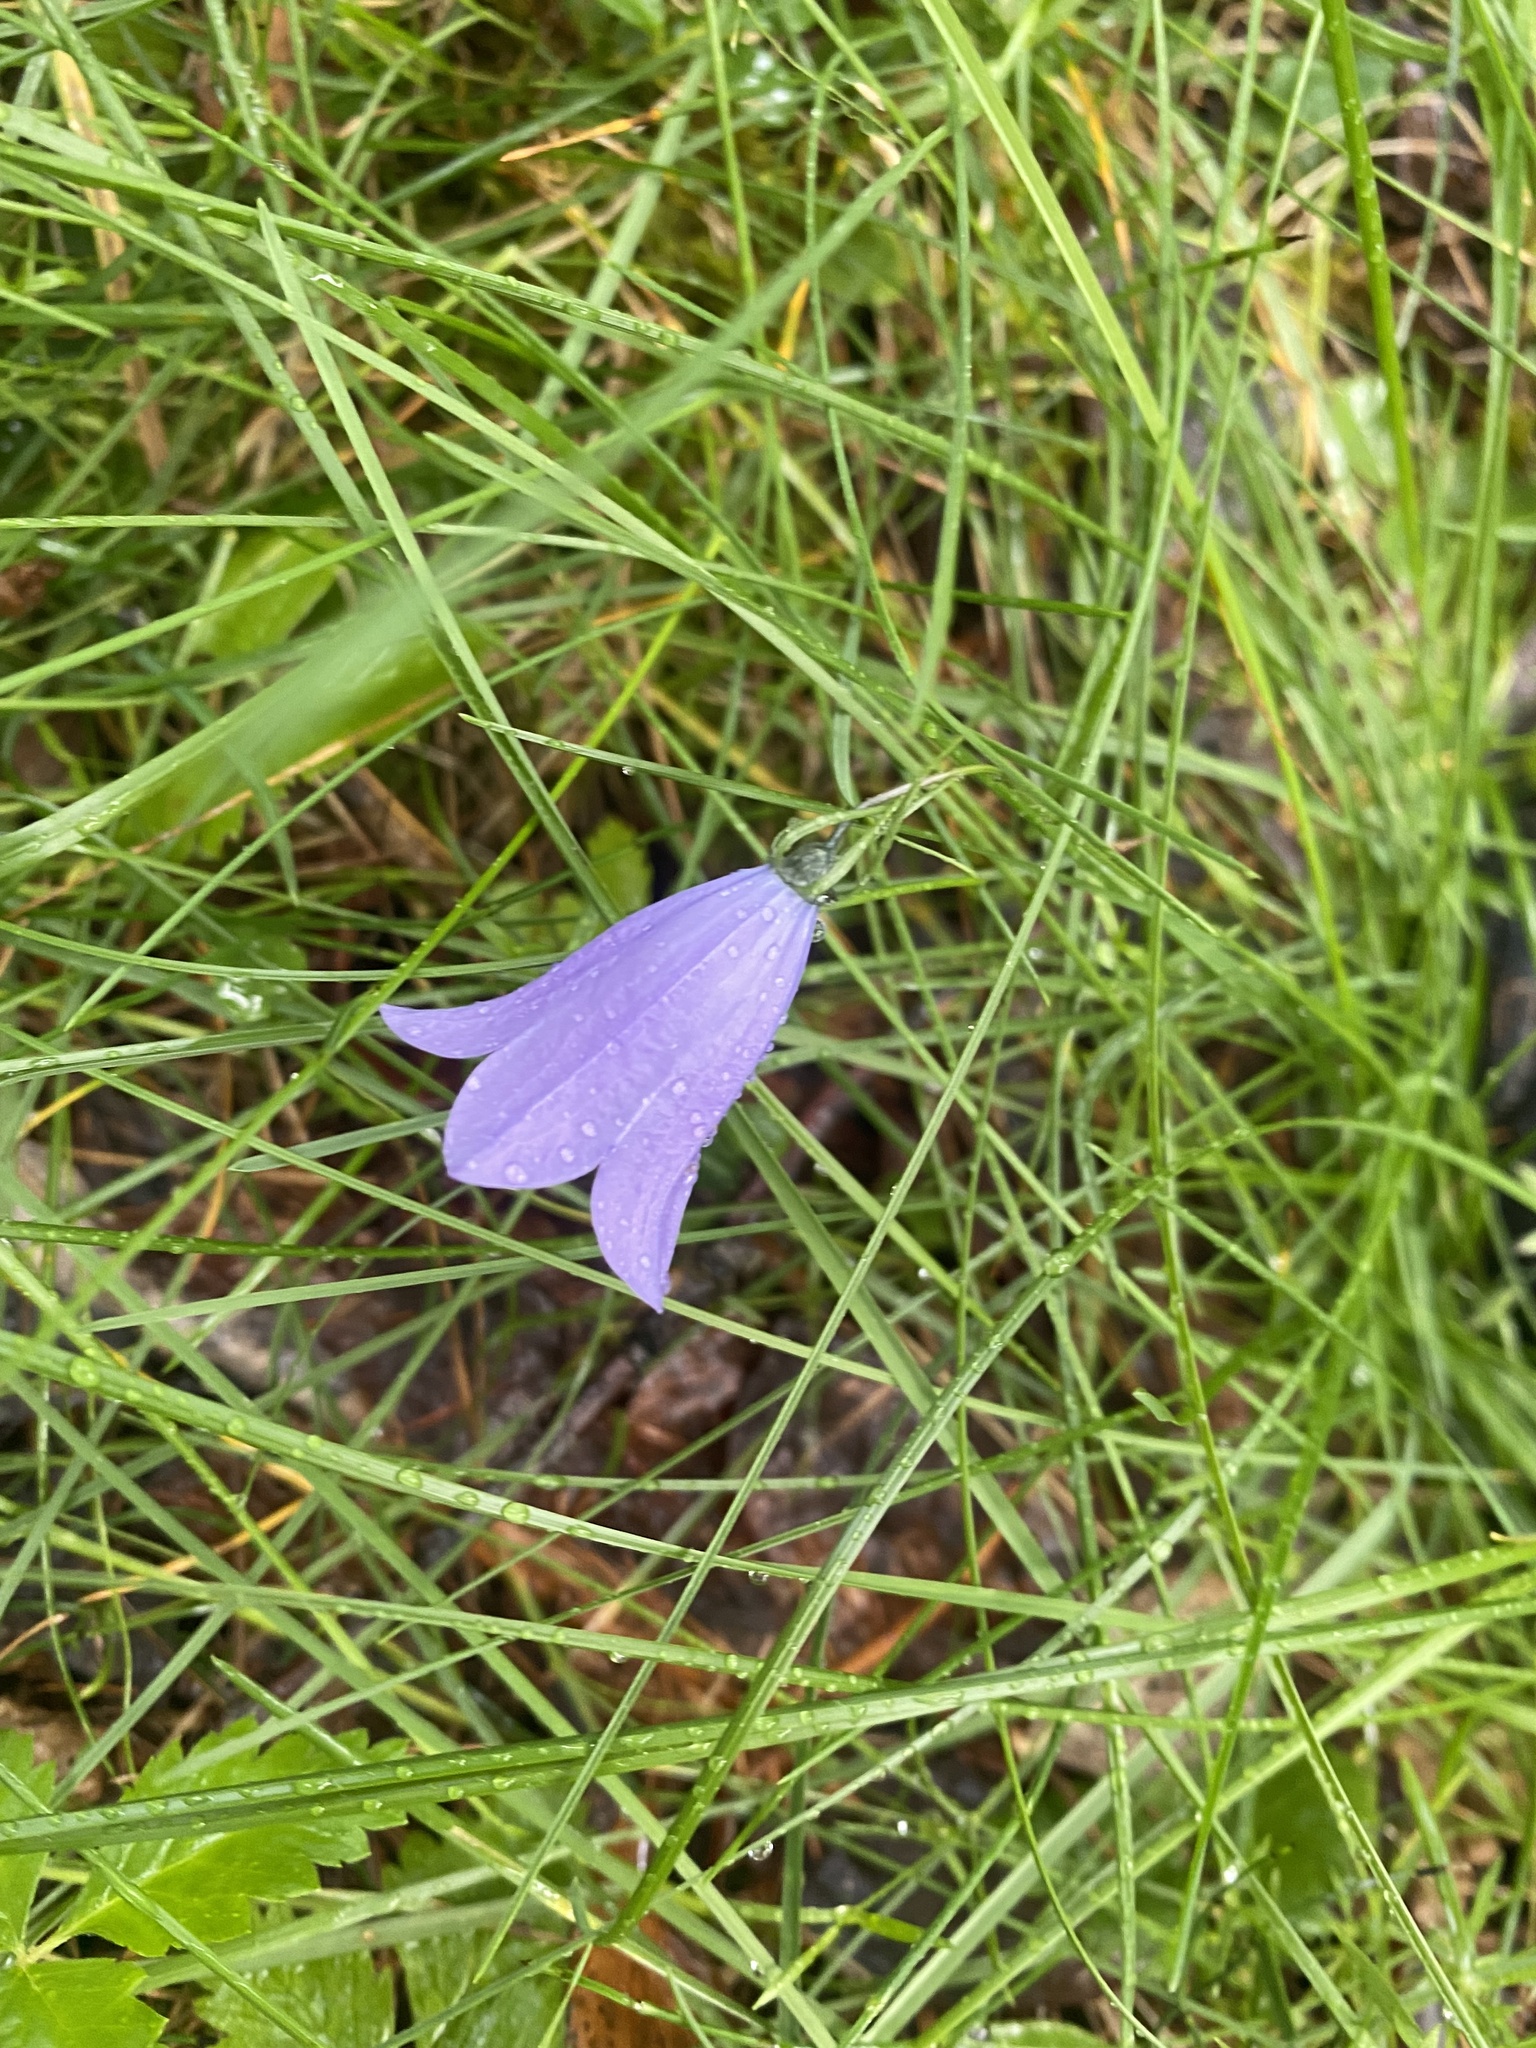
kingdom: Plantae
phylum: Tracheophyta
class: Magnoliopsida
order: Asterales
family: Campanulaceae
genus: Campanula
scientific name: Campanula rotundifolia
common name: Harebell
